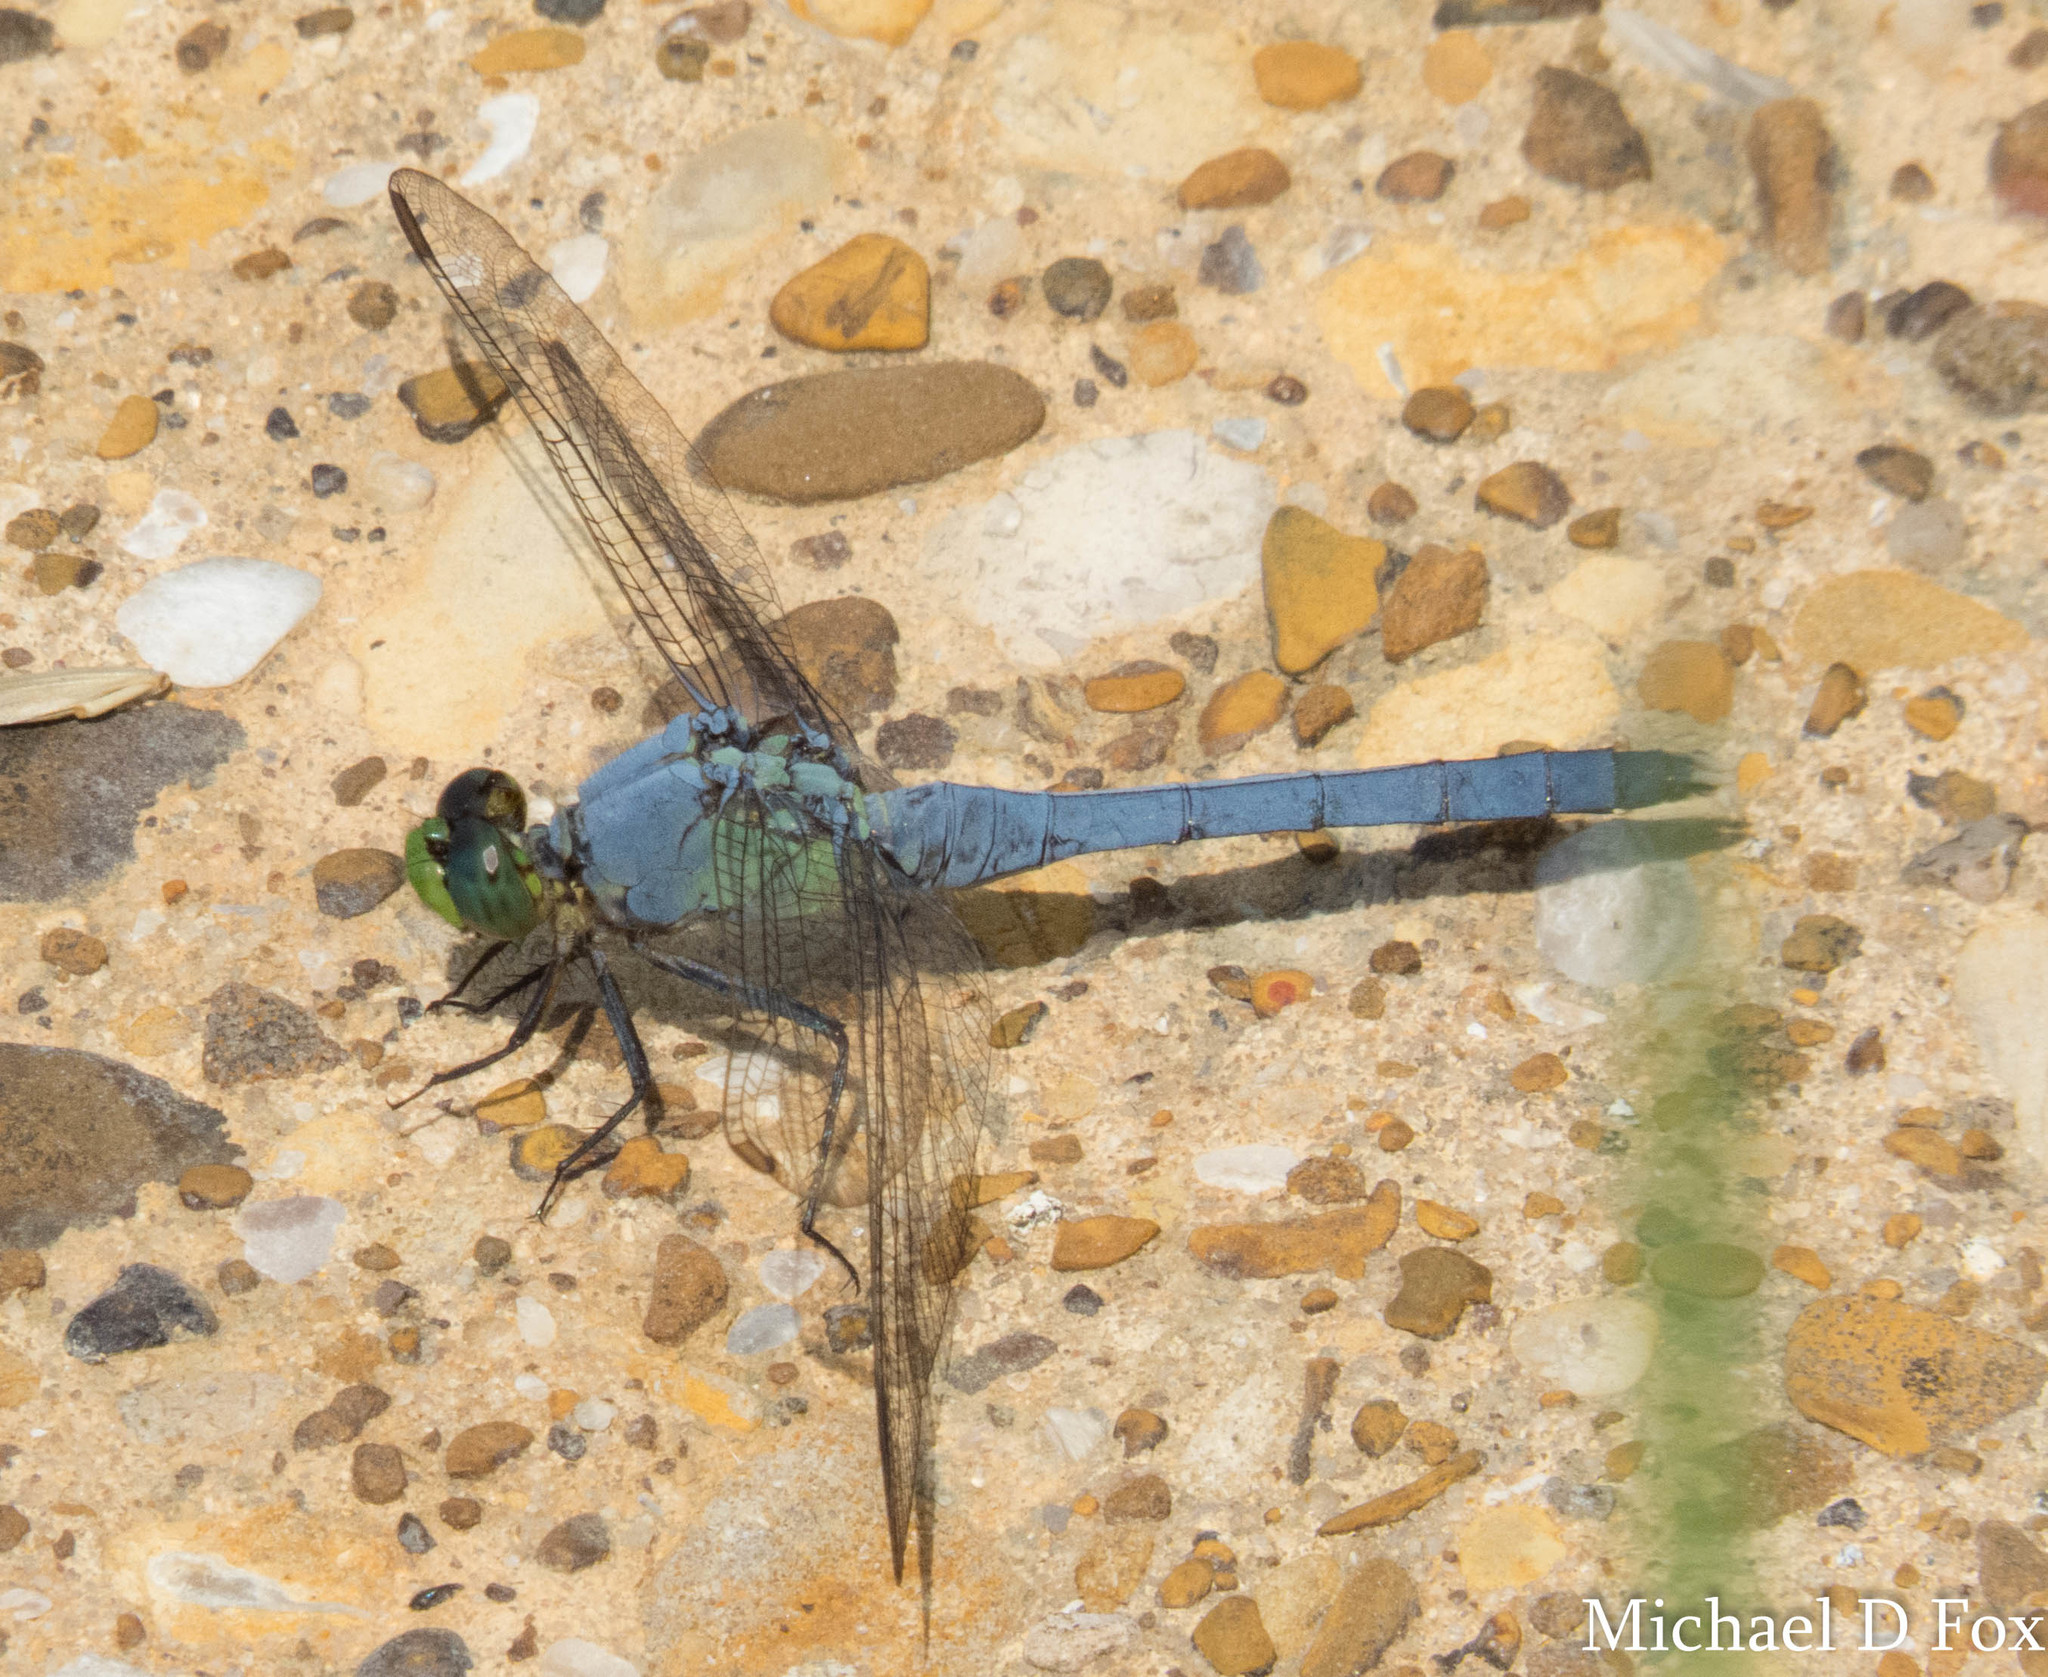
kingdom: Animalia
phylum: Arthropoda
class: Insecta
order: Odonata
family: Libellulidae
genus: Erythemis
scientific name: Erythemis simplicicollis
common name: Eastern pondhawk
